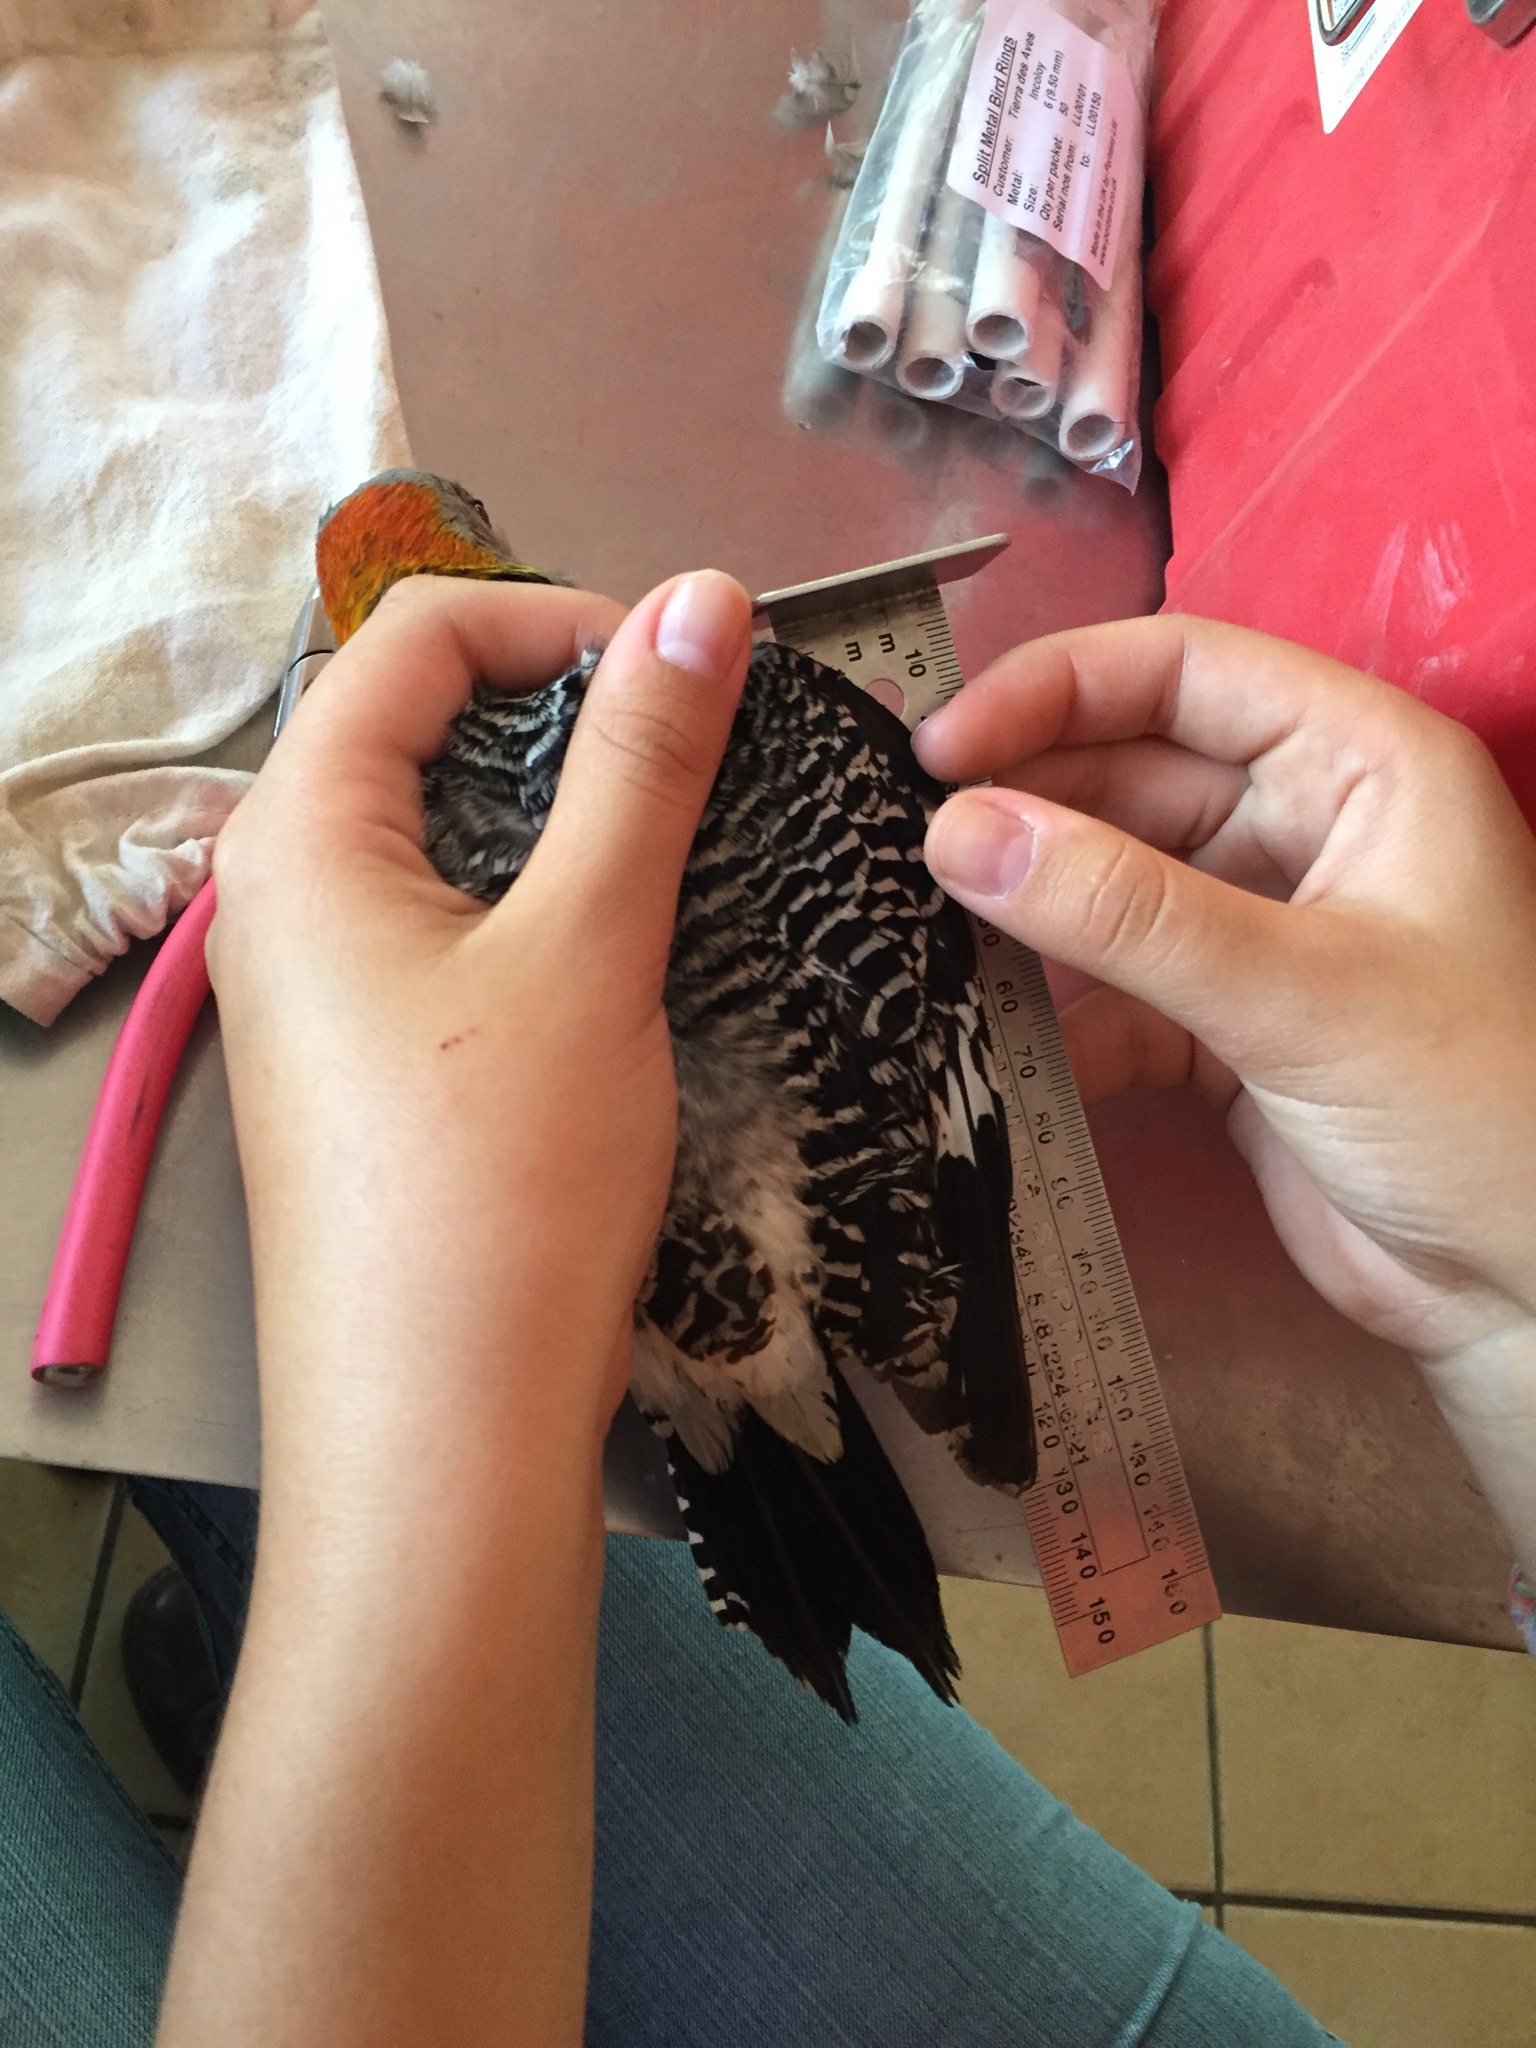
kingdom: Animalia
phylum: Chordata
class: Aves
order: Piciformes
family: Picidae
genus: Melanerpes
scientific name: Melanerpes aurifrons
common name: Golden-fronted woodpecker
